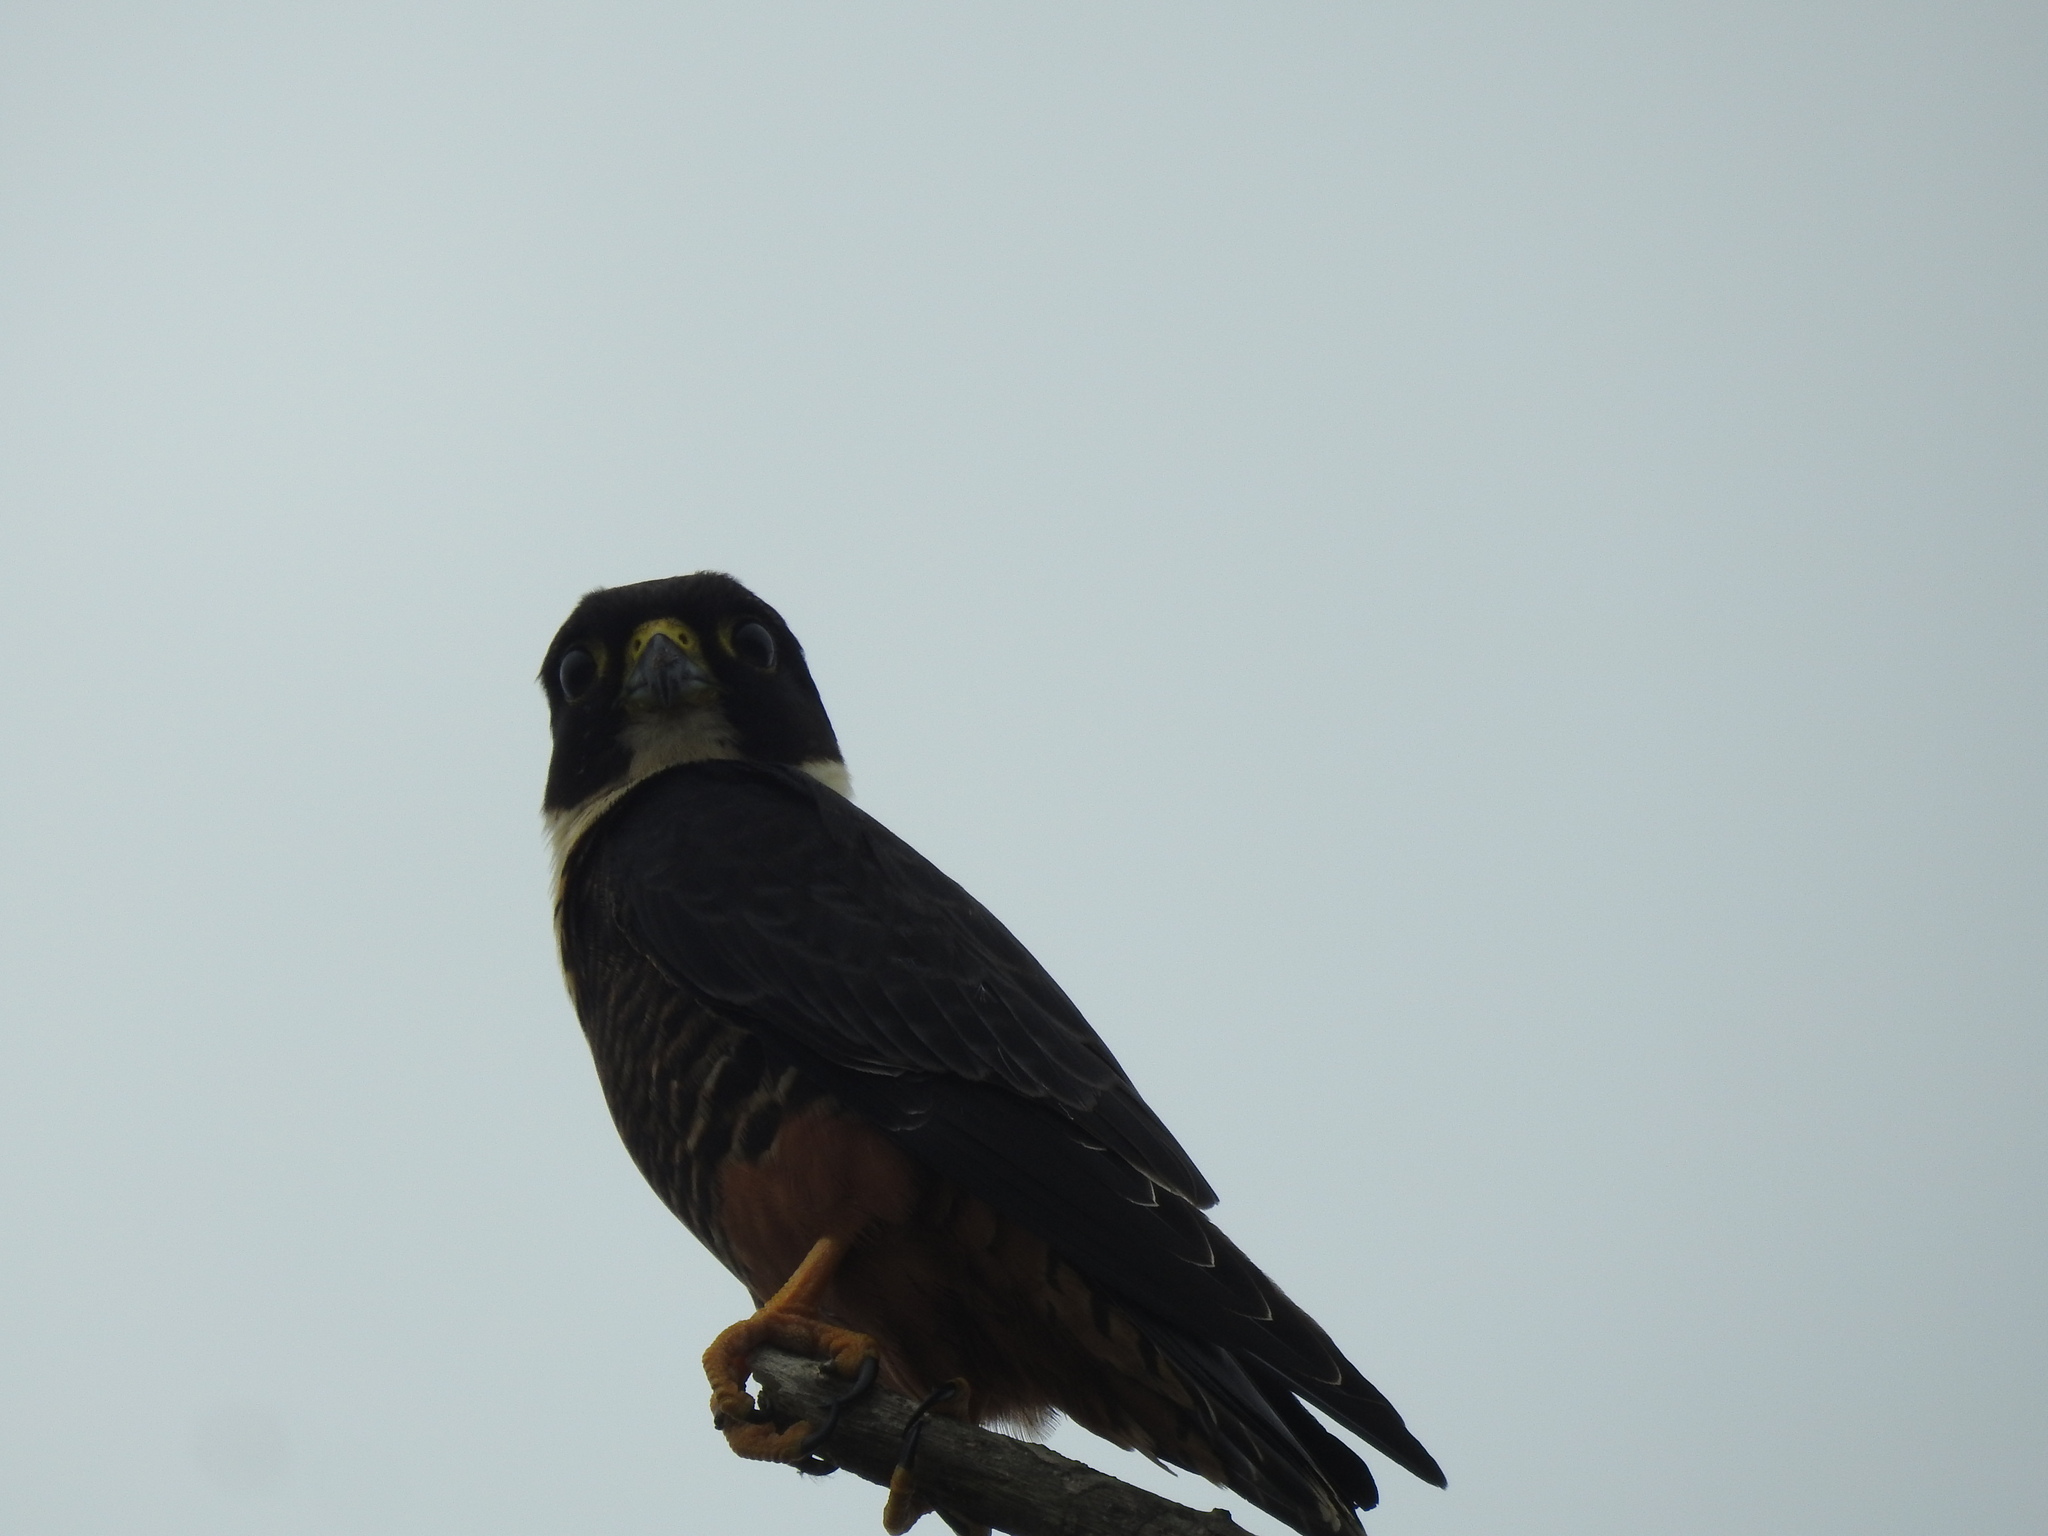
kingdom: Animalia
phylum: Chordata
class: Aves
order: Falconiformes
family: Falconidae
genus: Falco
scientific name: Falco rufigularis
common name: Bat falcon
